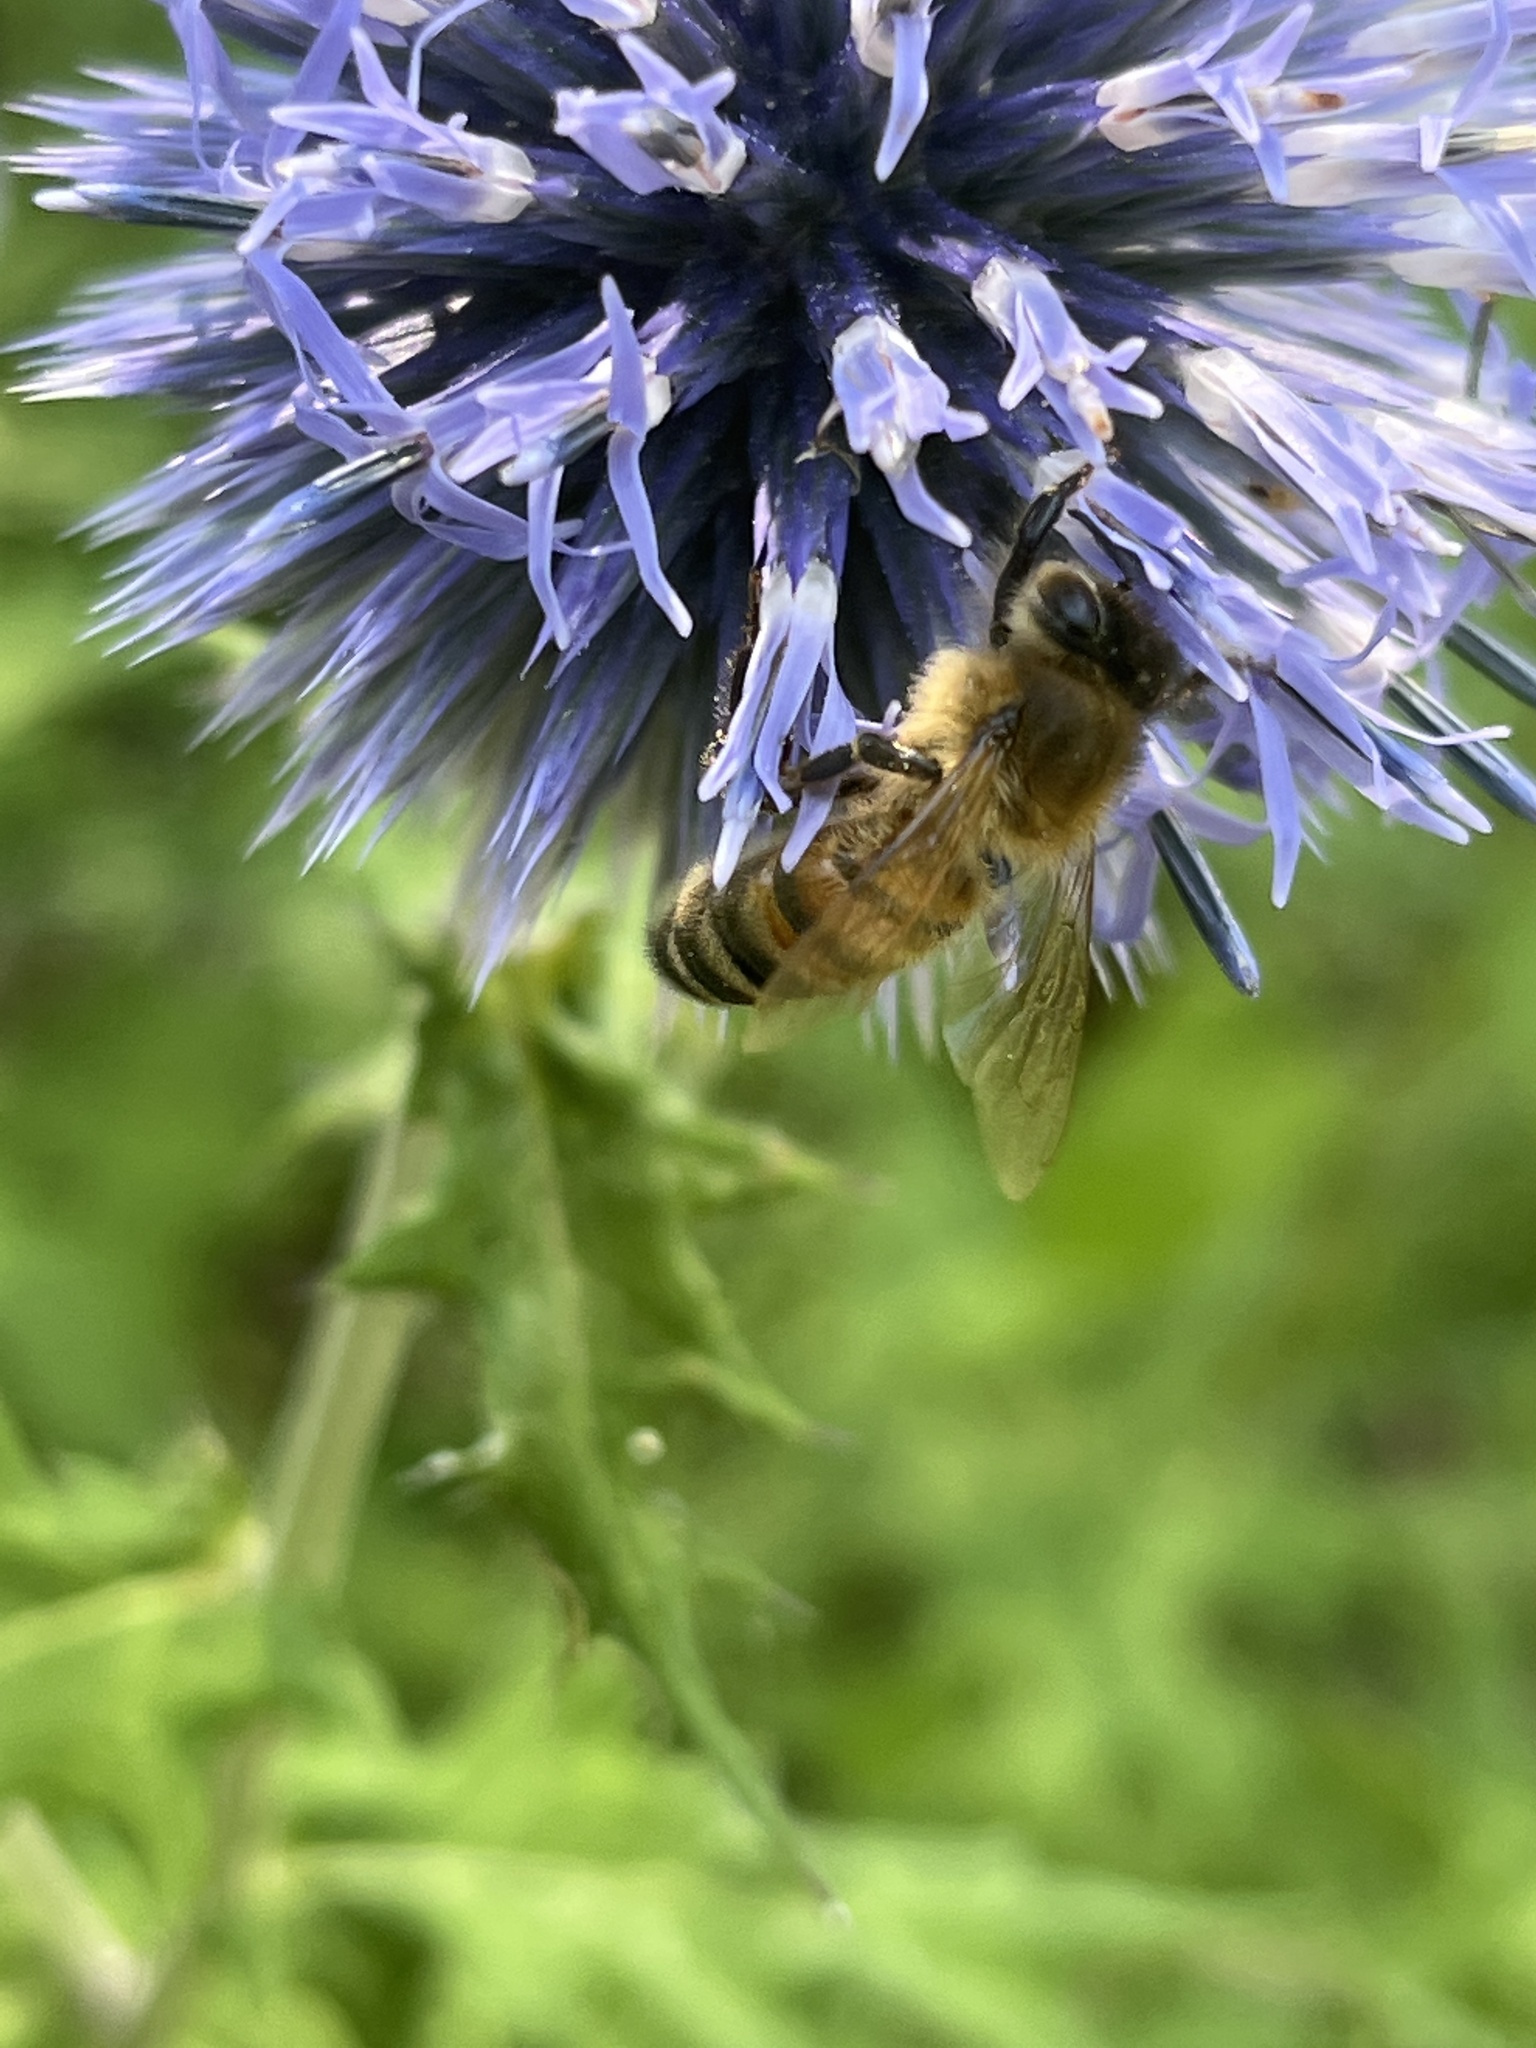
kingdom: Animalia
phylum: Arthropoda
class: Insecta
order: Hymenoptera
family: Apidae
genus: Apis
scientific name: Apis mellifera
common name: Honey bee
